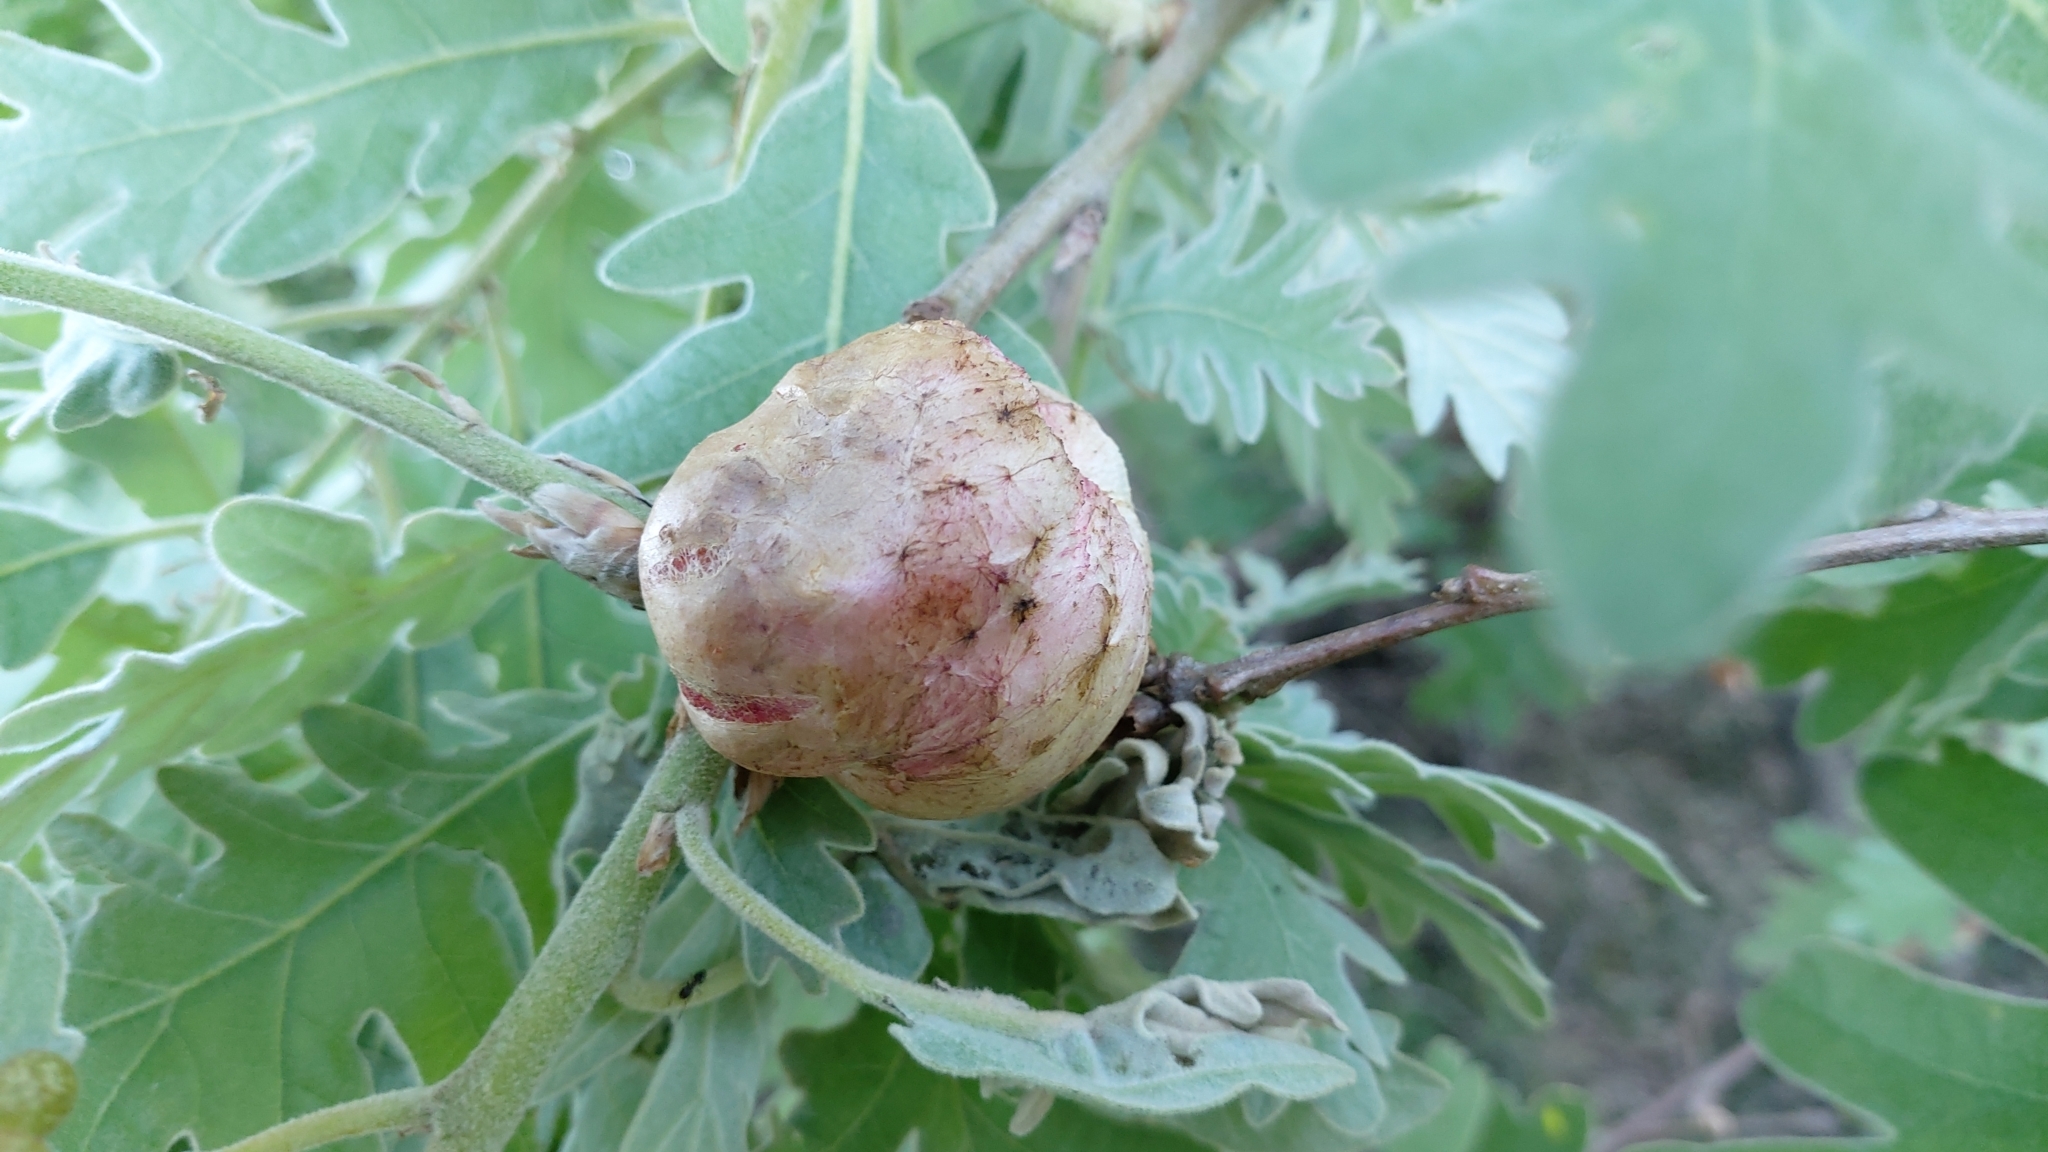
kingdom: Animalia
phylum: Arthropoda
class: Insecta
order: Hymenoptera
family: Cynipidae
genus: Biorhiza
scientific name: Biorhiza pallida
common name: Oak apple
